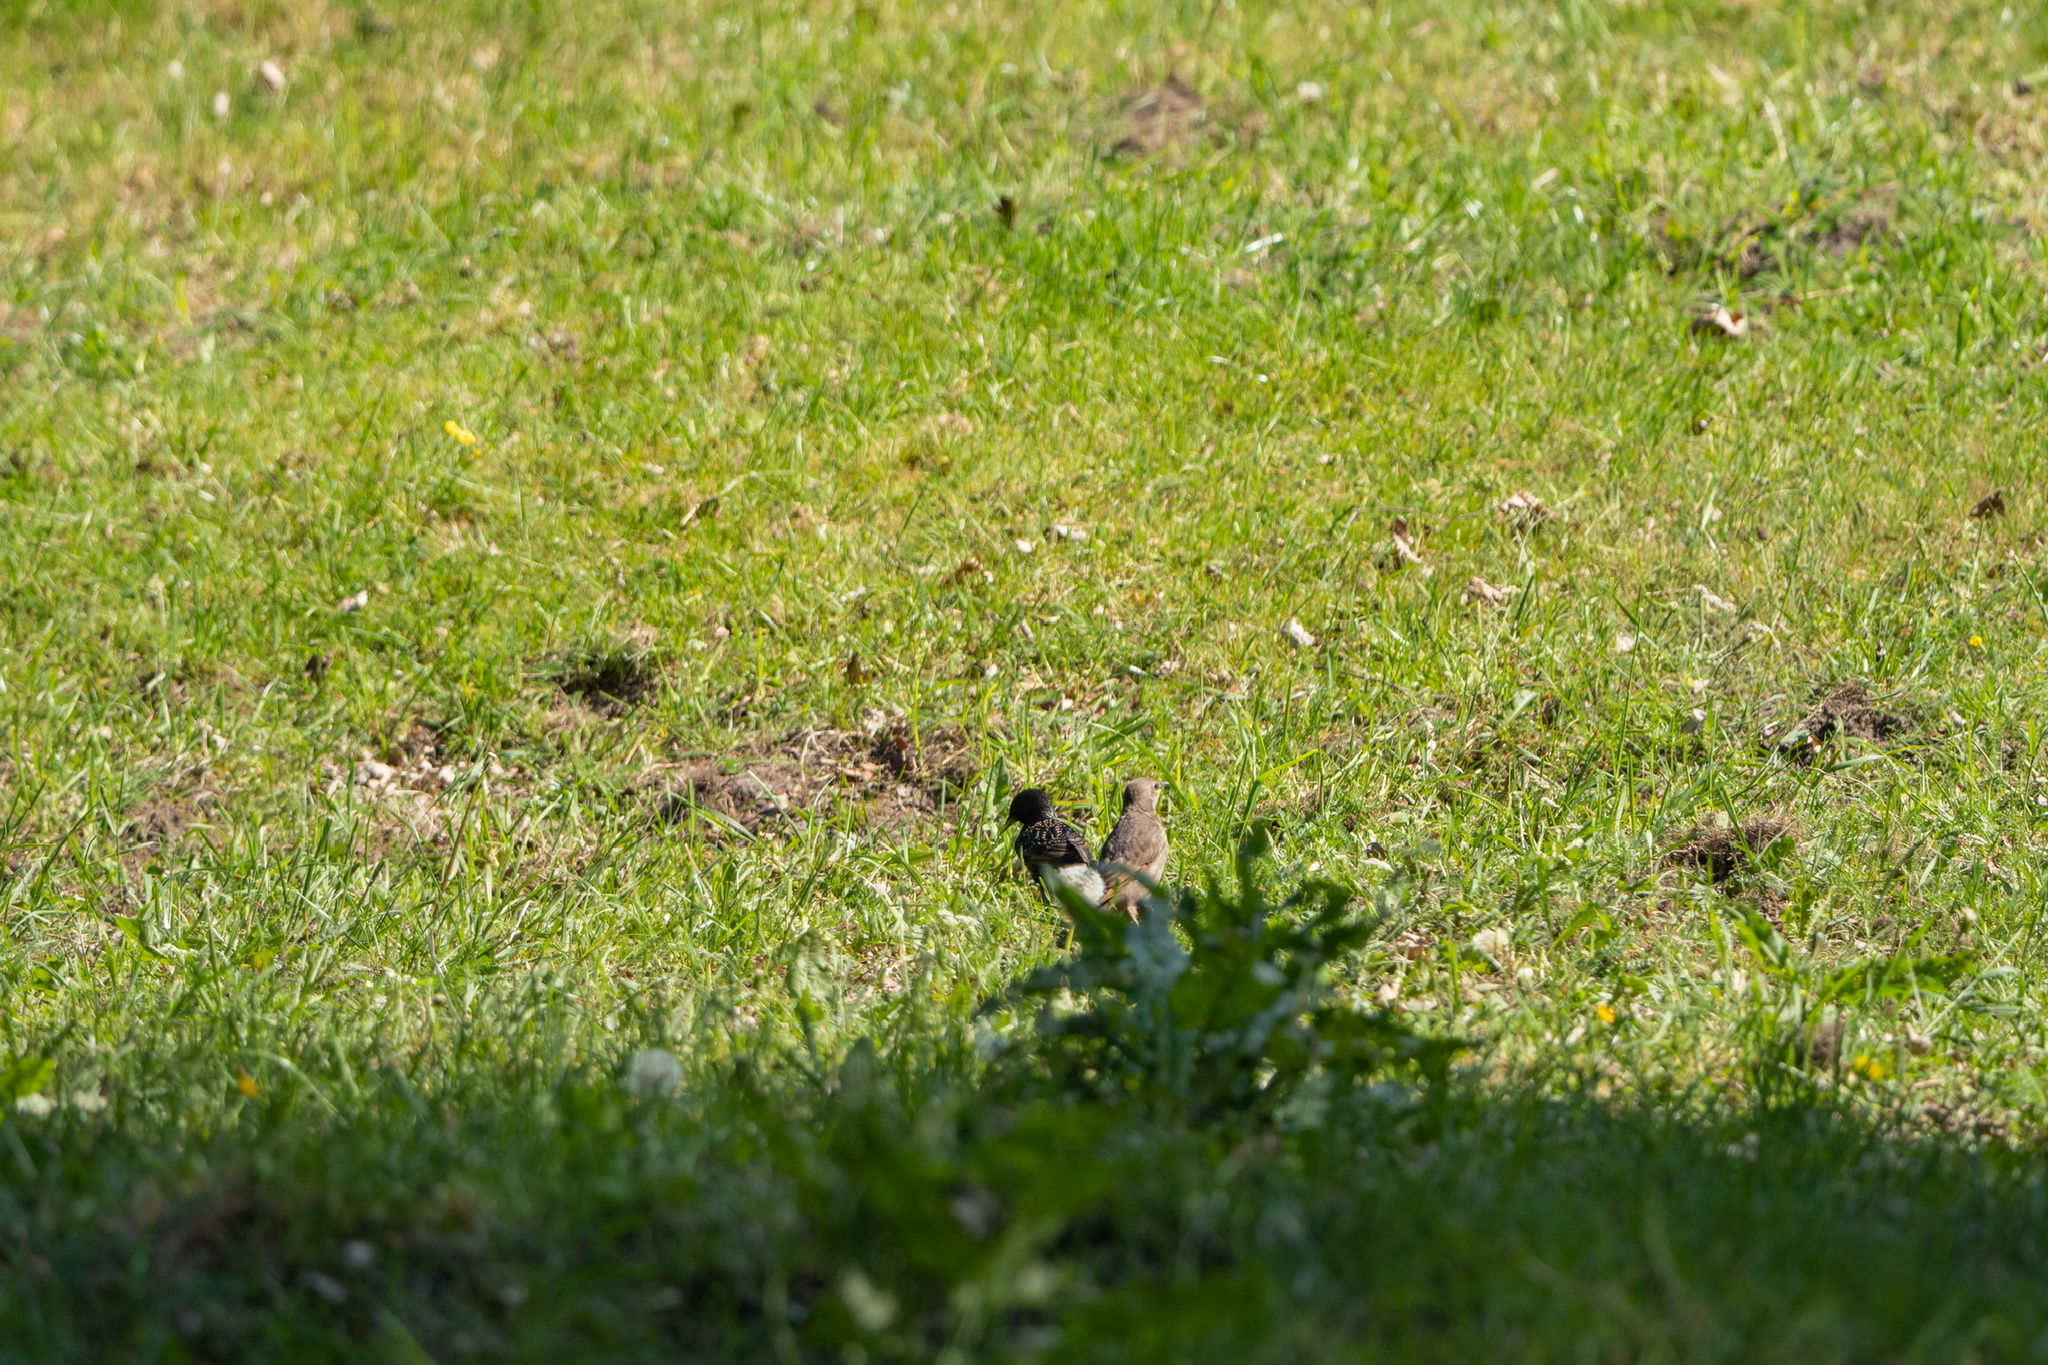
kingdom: Animalia
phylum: Chordata
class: Aves
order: Passeriformes
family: Sturnidae
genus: Sturnus
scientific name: Sturnus vulgaris
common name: Common starling
